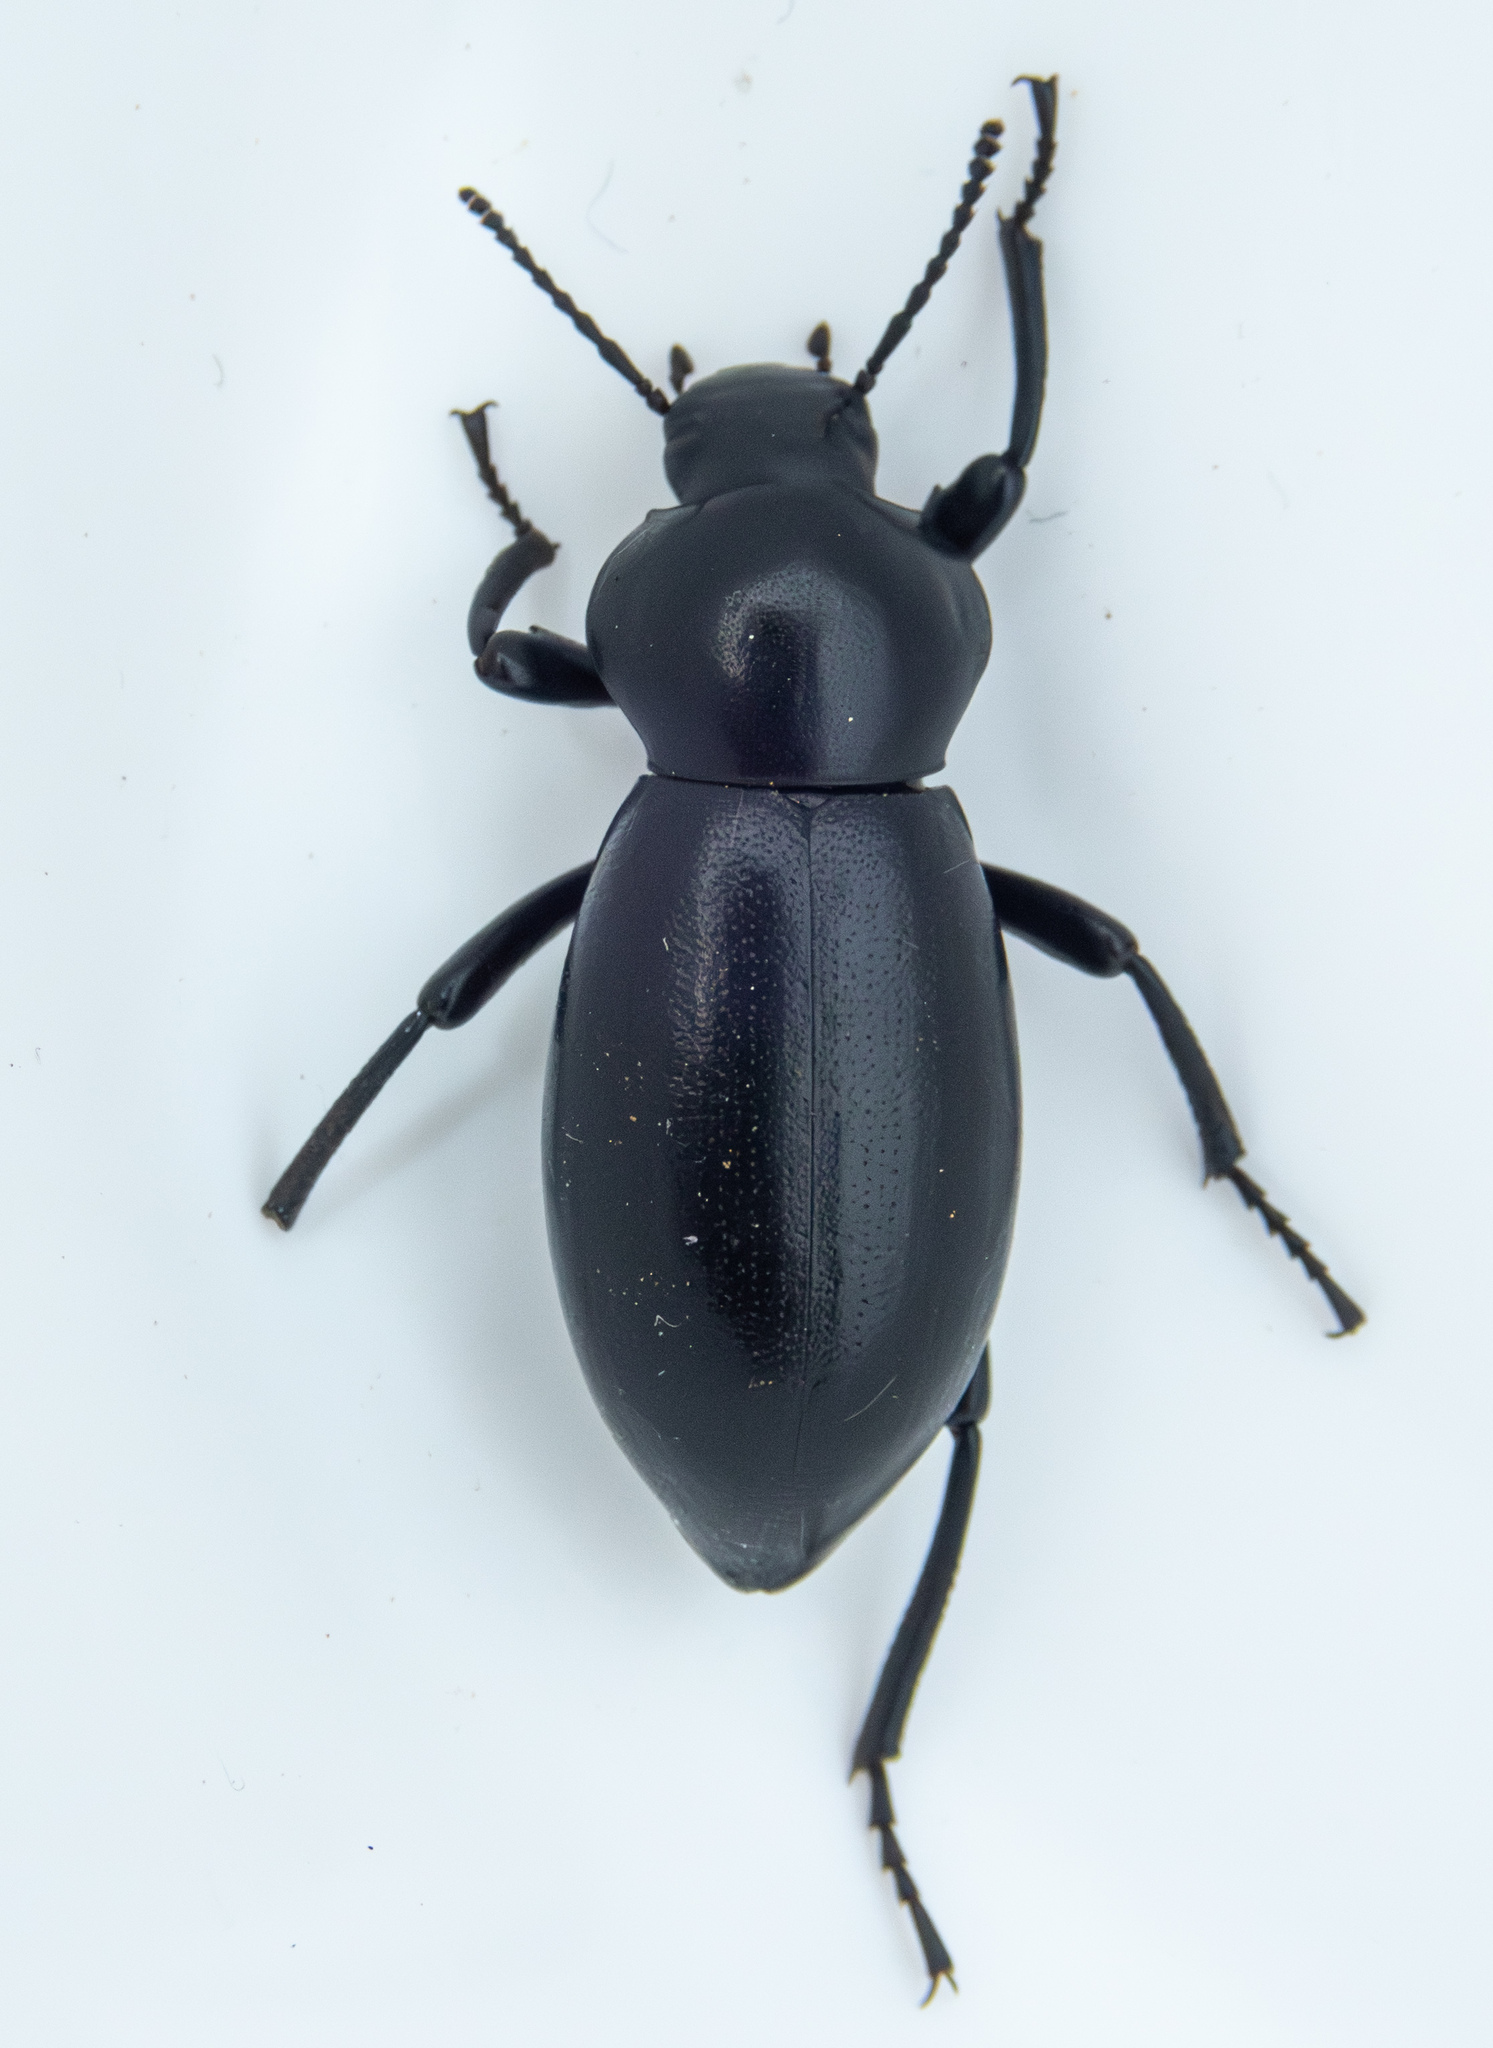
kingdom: Animalia
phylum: Arthropoda
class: Insecta
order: Coleoptera
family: Tenebrionidae
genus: Eleodes
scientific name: Eleodes dentipes
